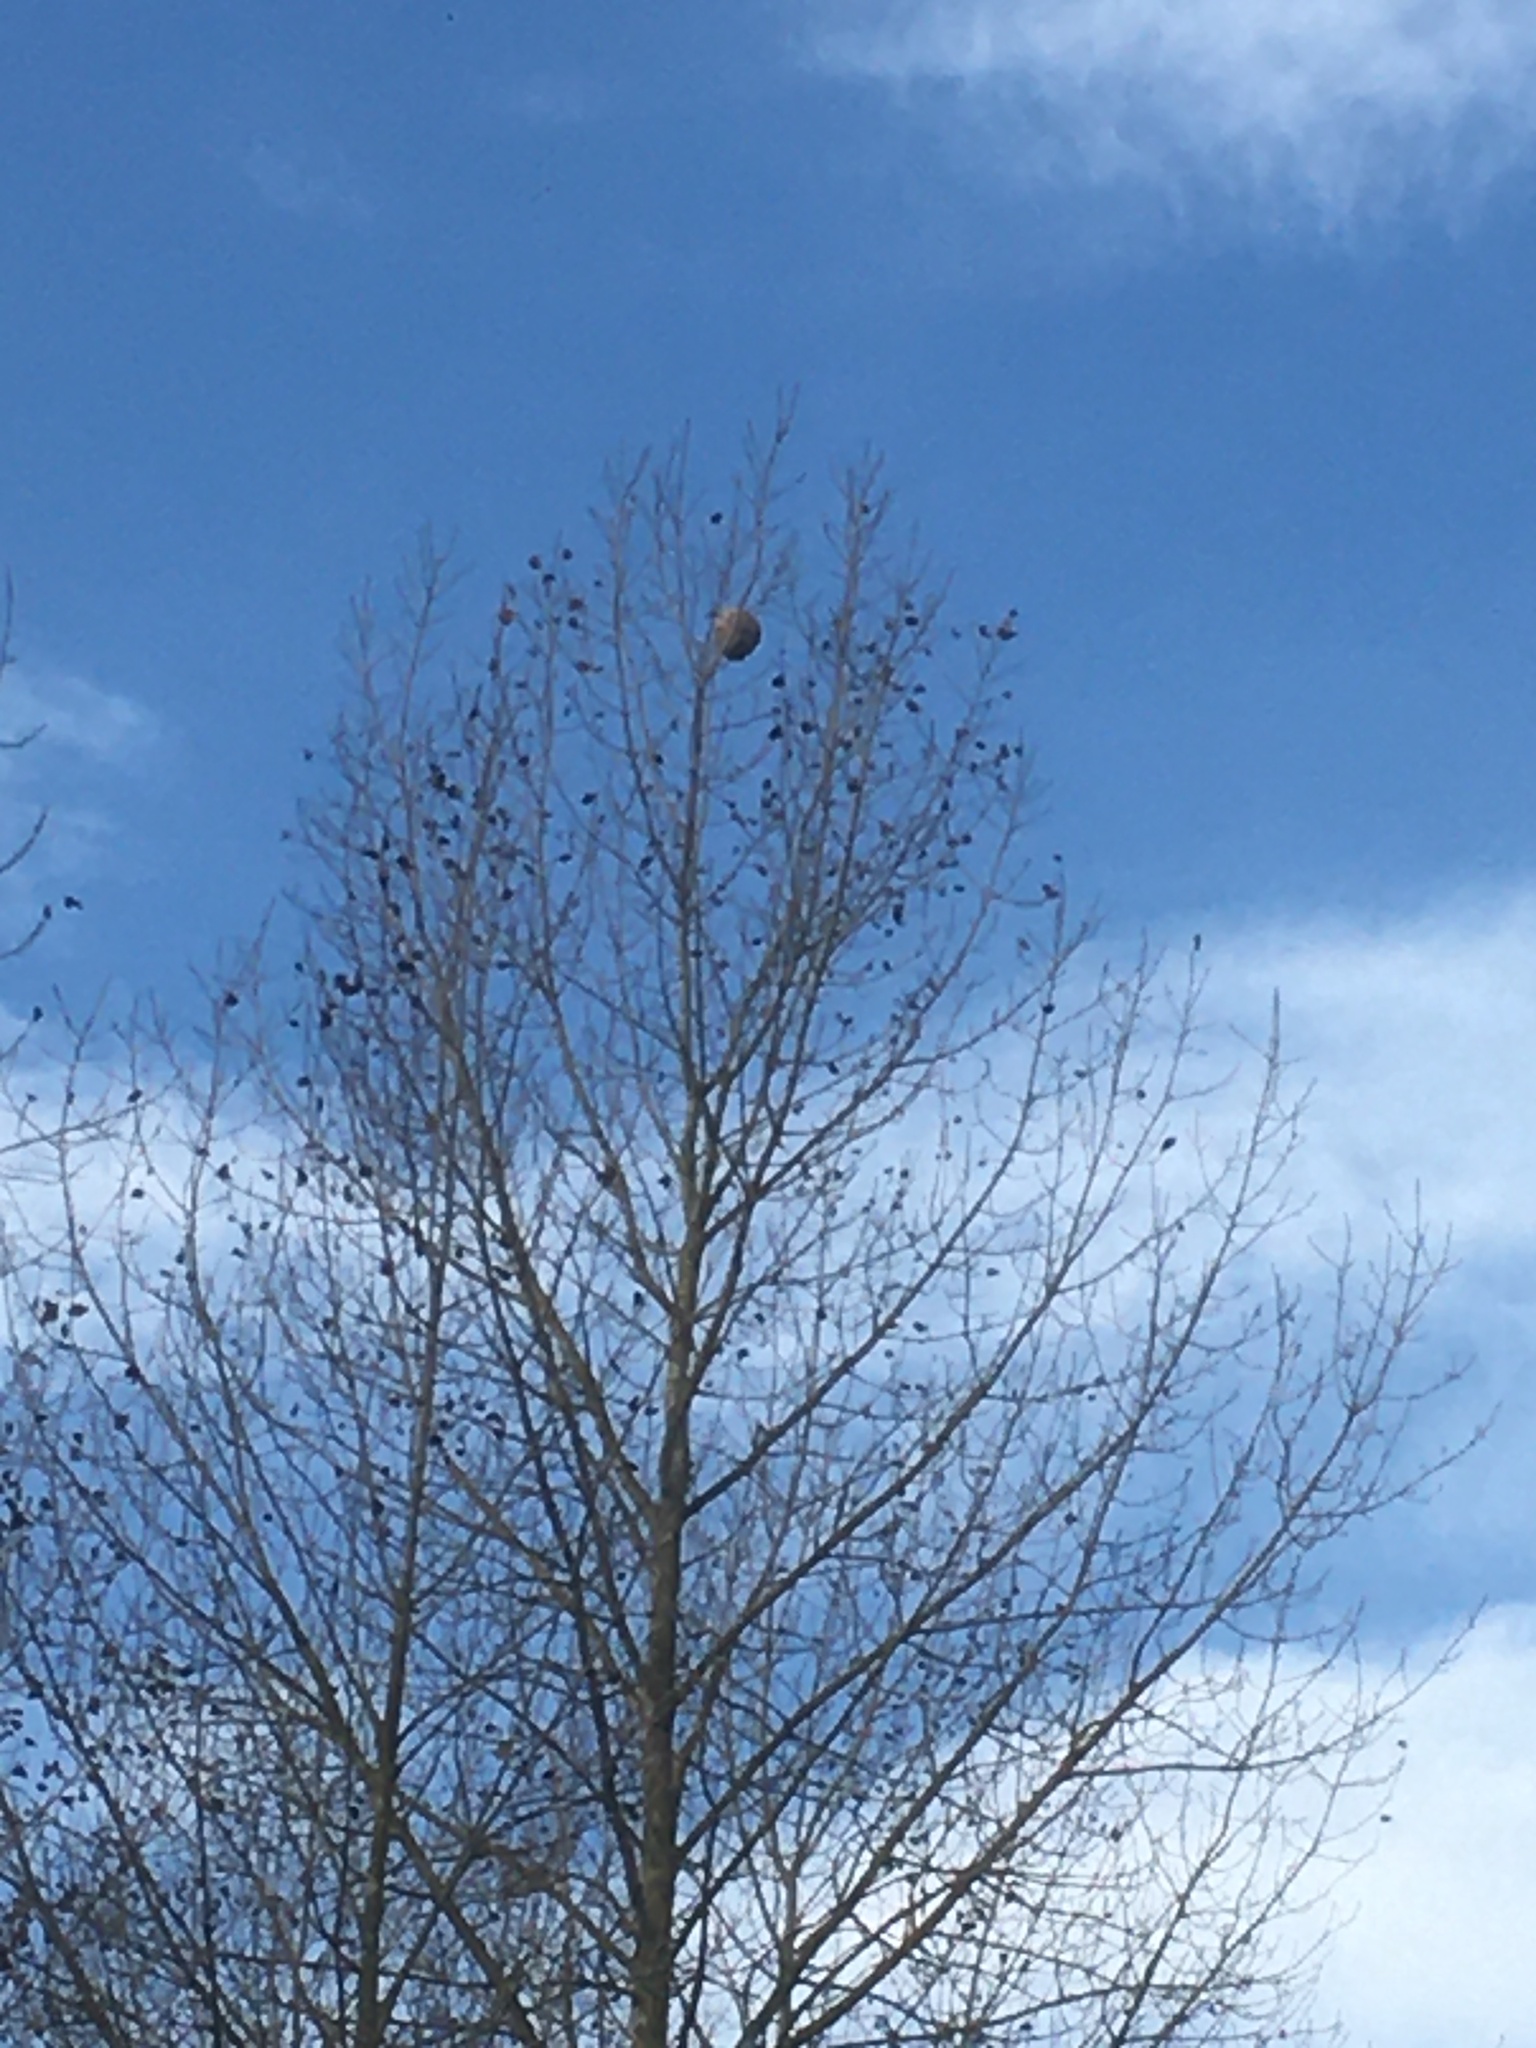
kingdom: Animalia
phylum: Arthropoda
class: Insecta
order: Hymenoptera
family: Vespidae
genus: Vespa
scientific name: Vespa velutina
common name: Asian hornet
